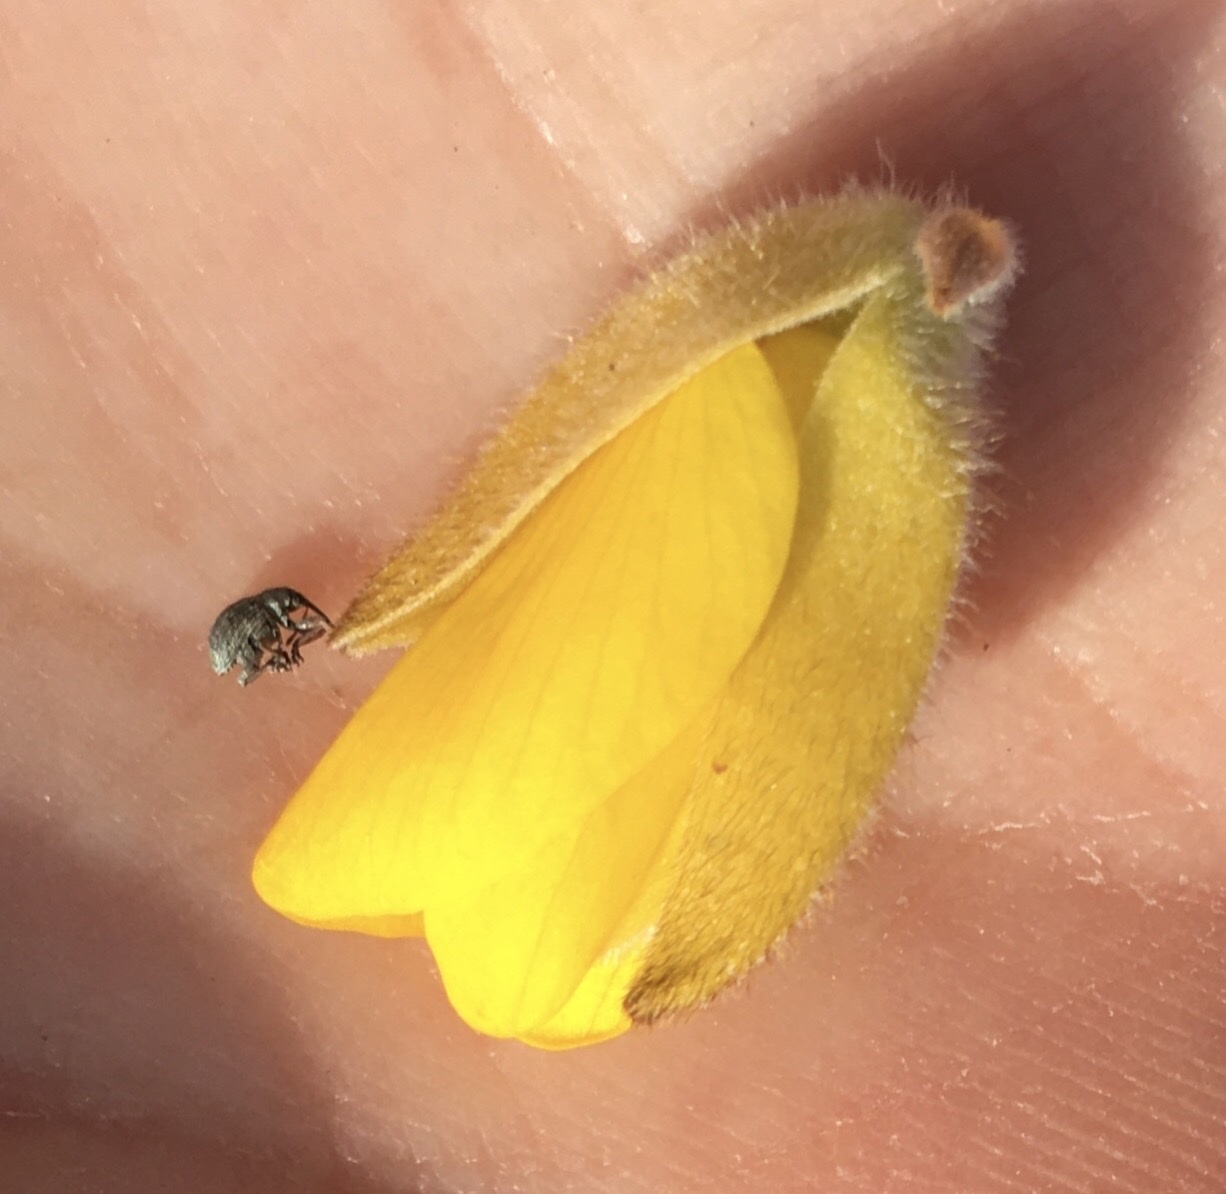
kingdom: Animalia
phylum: Arthropoda
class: Insecta
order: Coleoptera
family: Brentidae
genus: Exapion
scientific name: Exapion ulicis
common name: Gorse seed weevil
